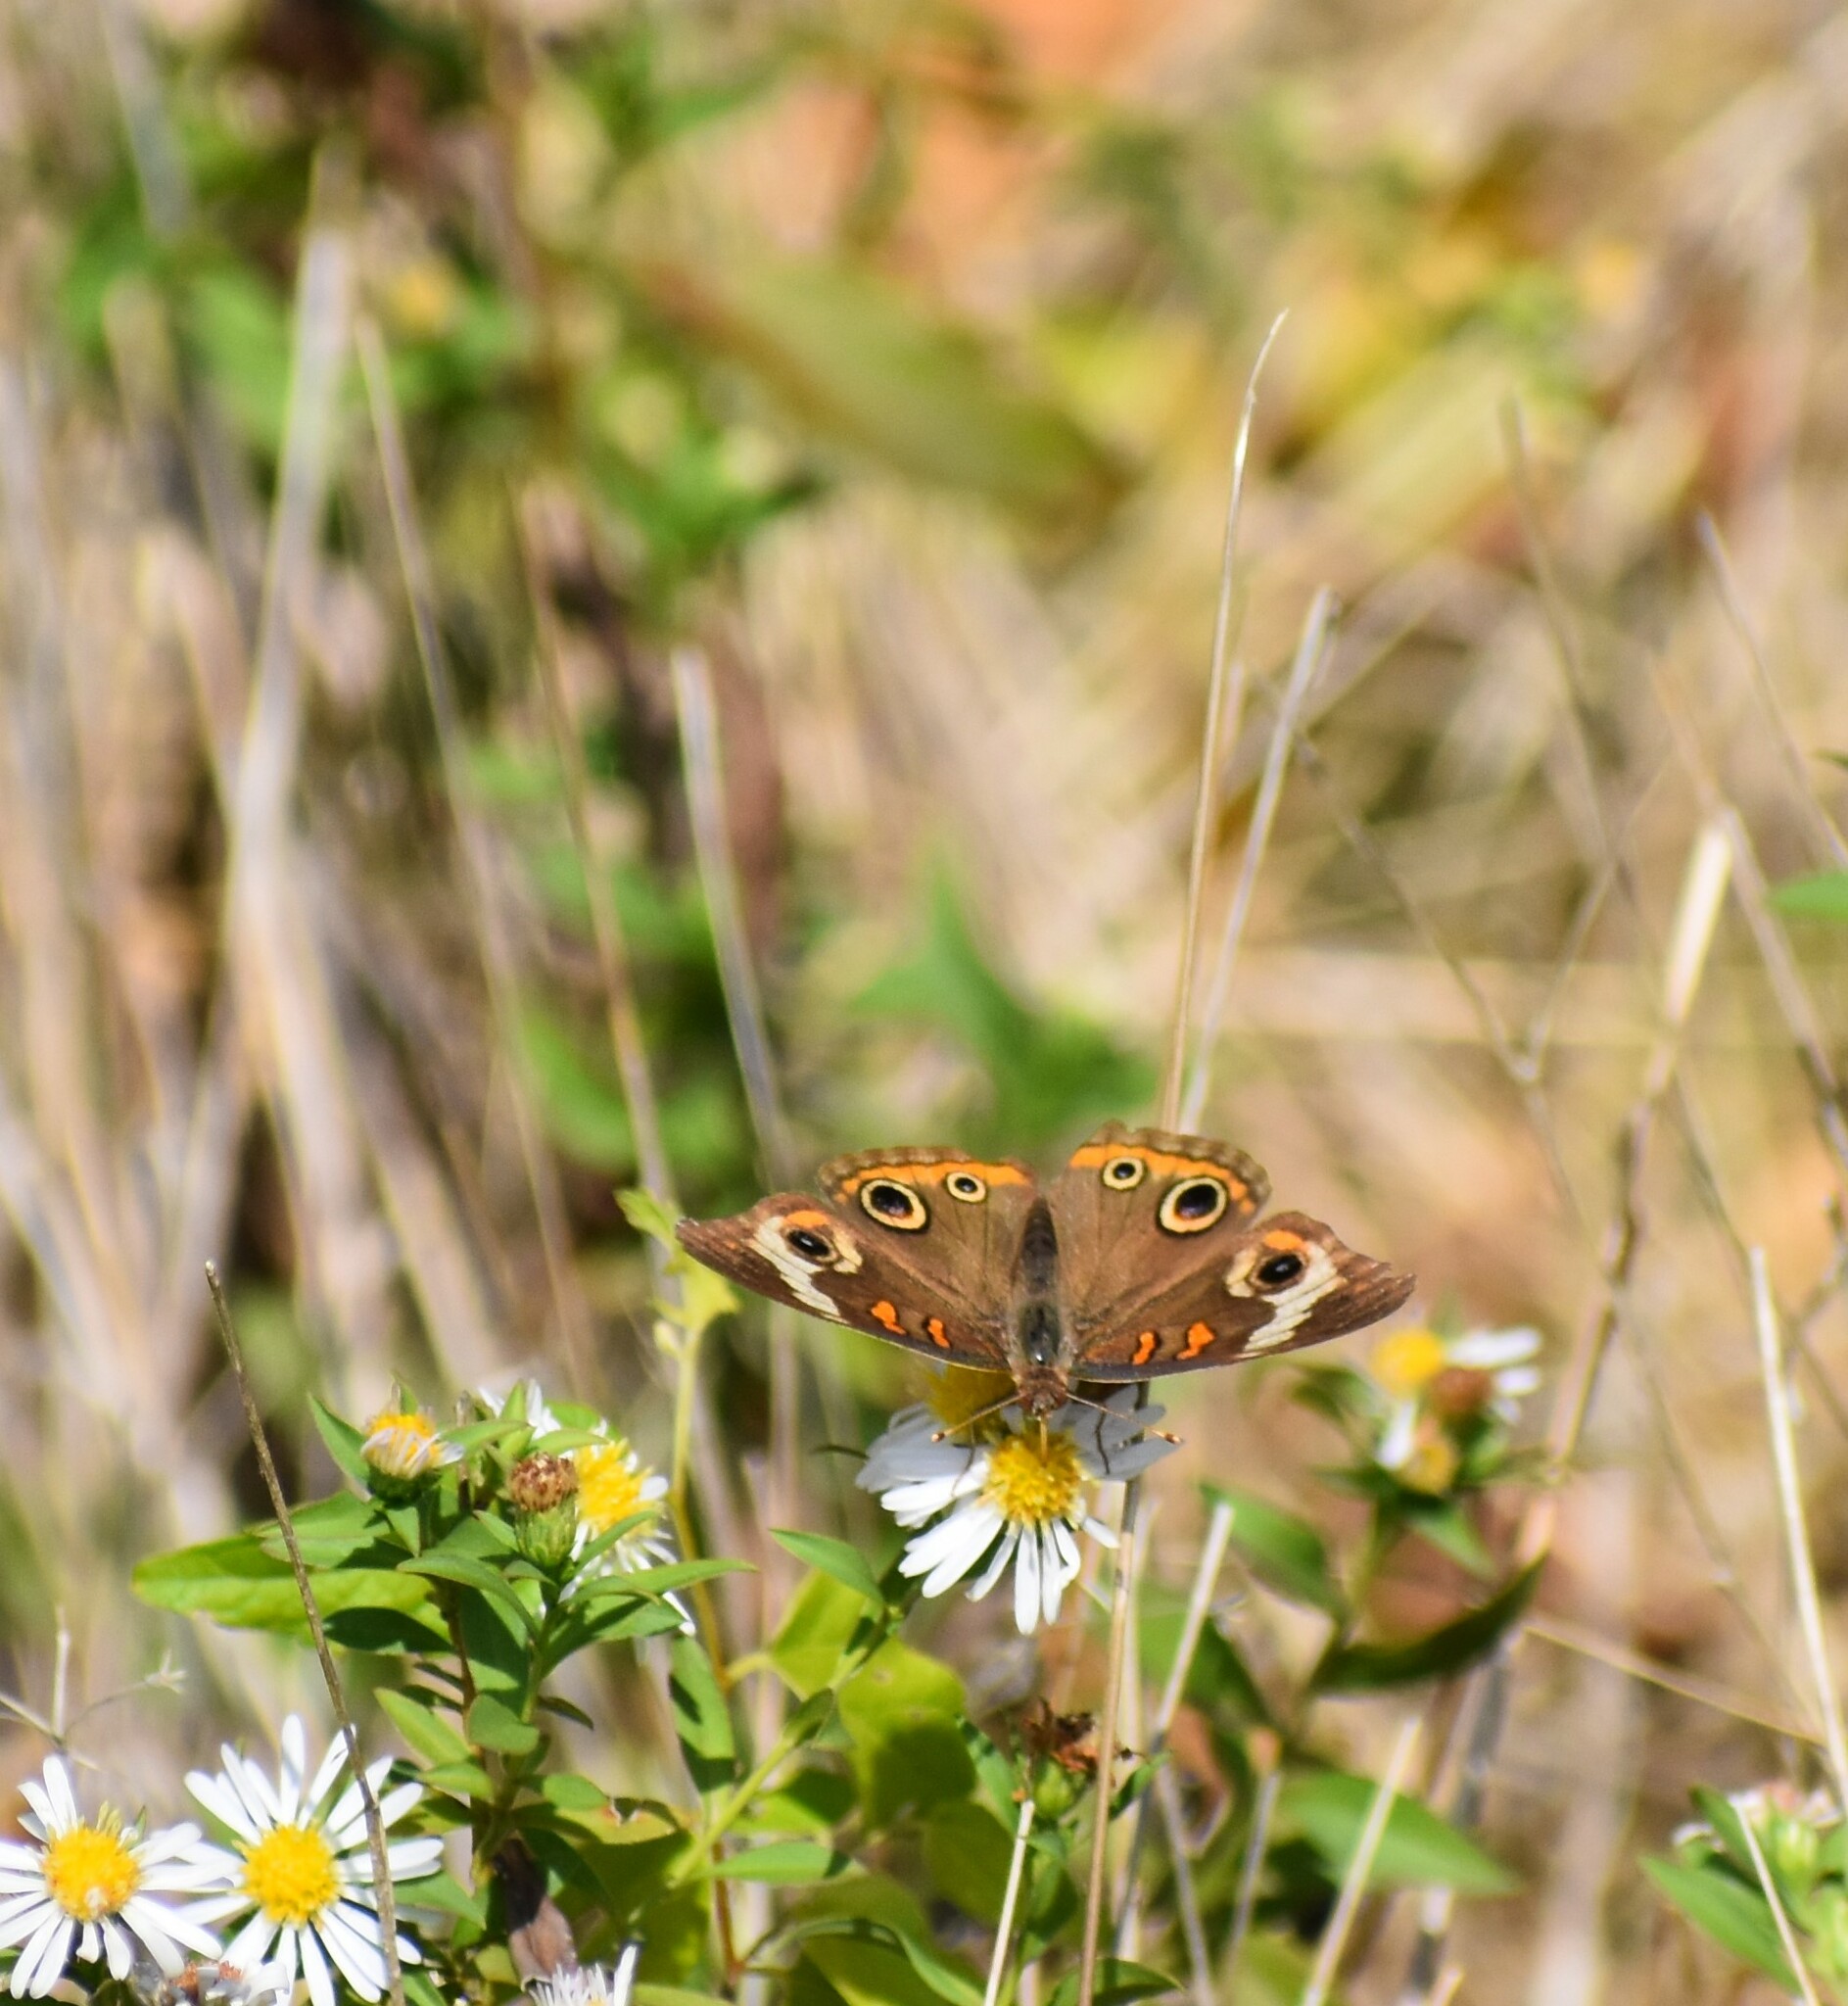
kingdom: Animalia
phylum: Arthropoda
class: Insecta
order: Lepidoptera
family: Nymphalidae
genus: Junonia
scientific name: Junonia coenia
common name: Common buckeye
